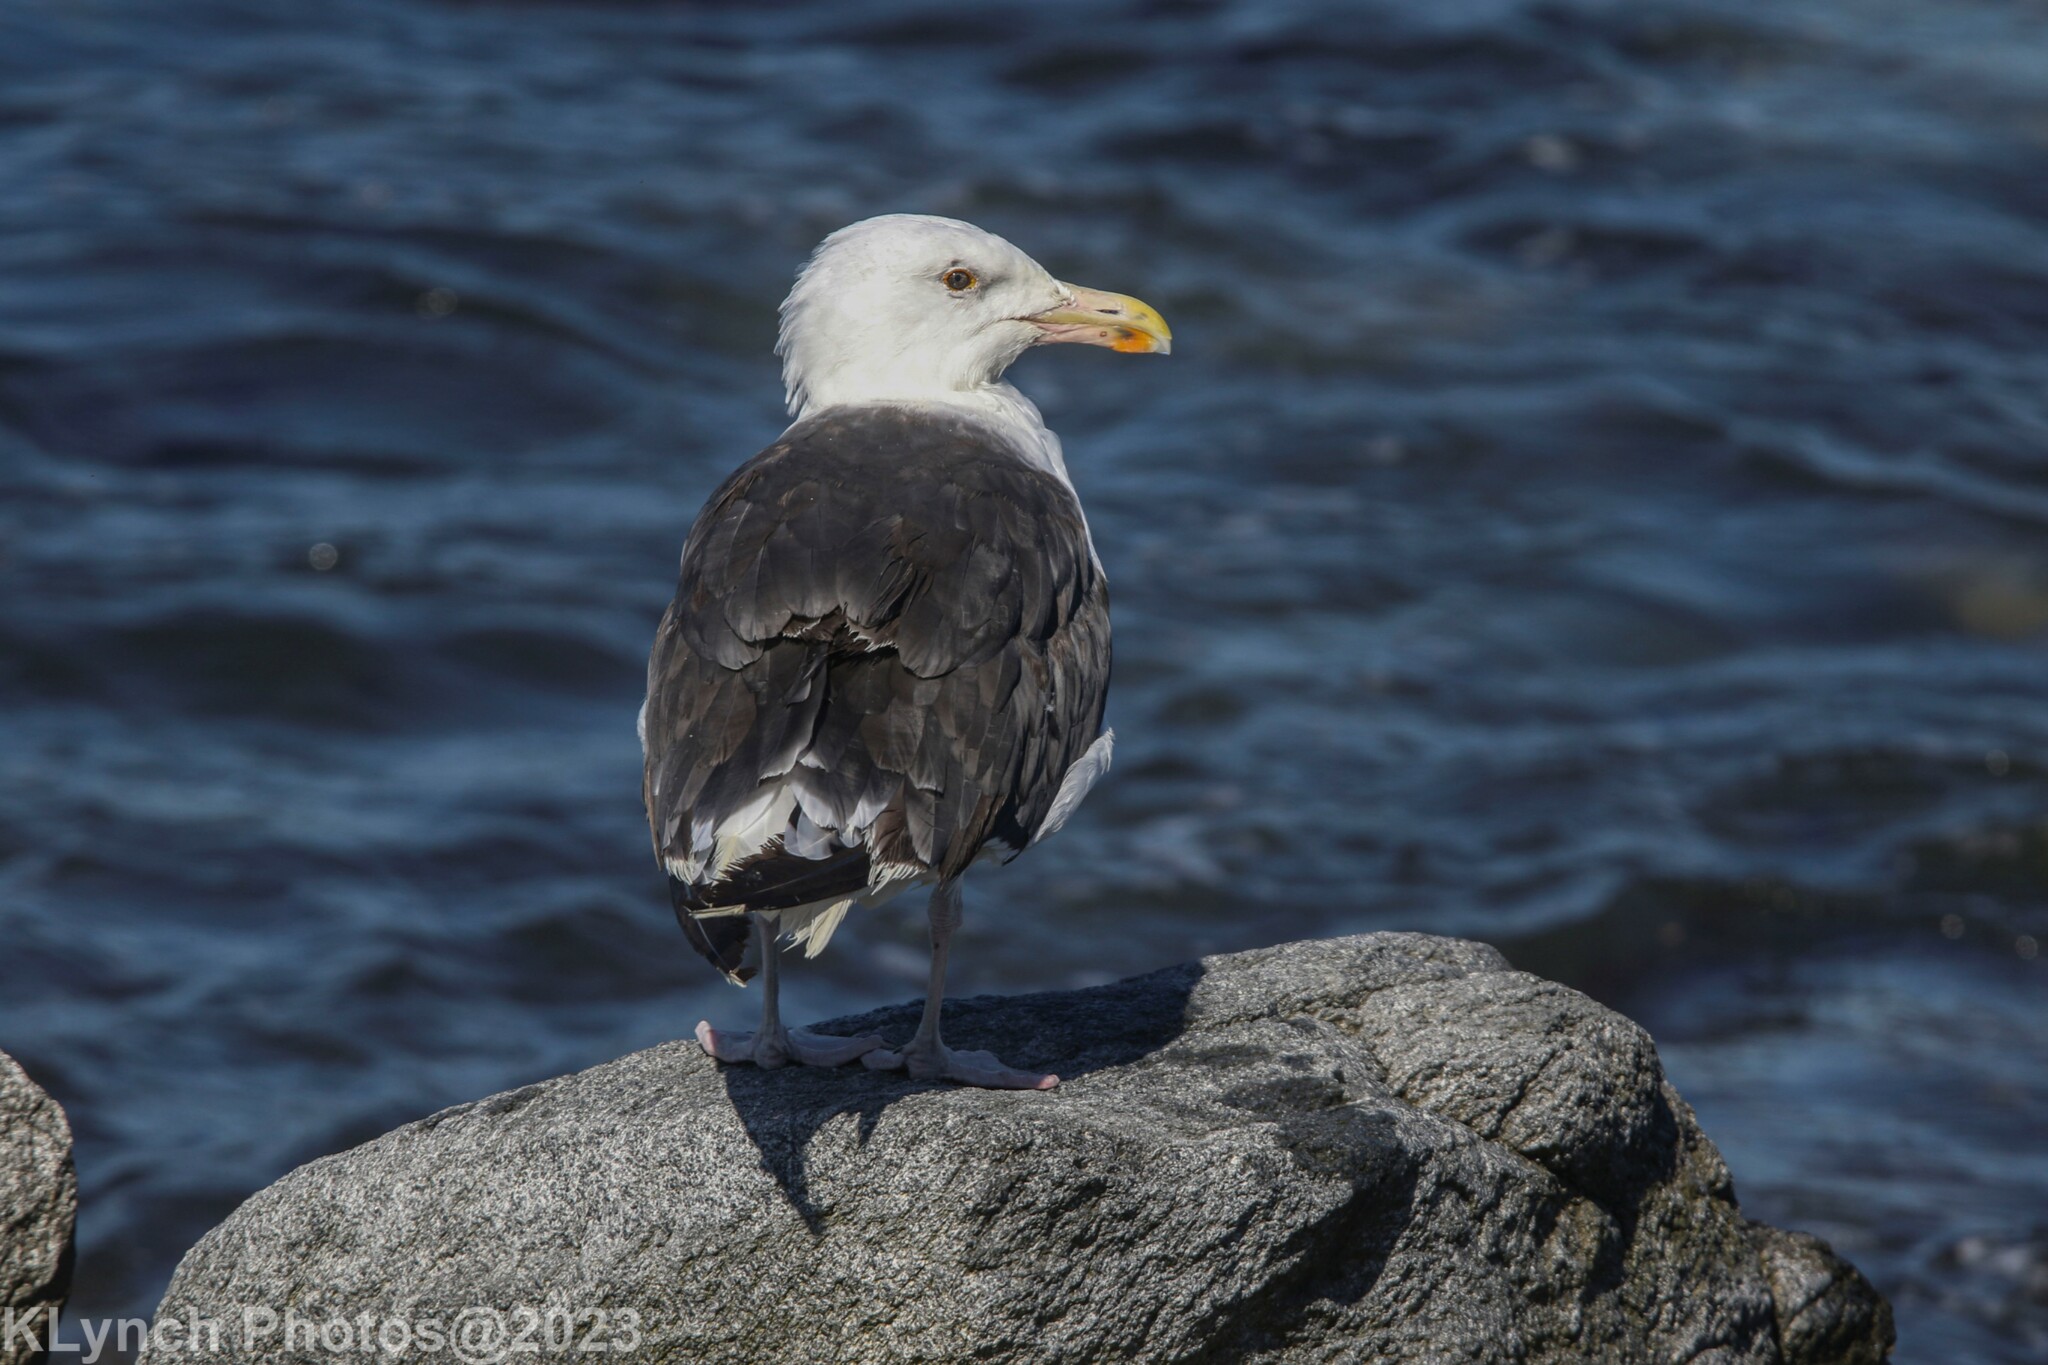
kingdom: Animalia
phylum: Chordata
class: Aves
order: Charadriiformes
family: Laridae
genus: Larus
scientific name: Larus marinus
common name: Great black-backed gull
